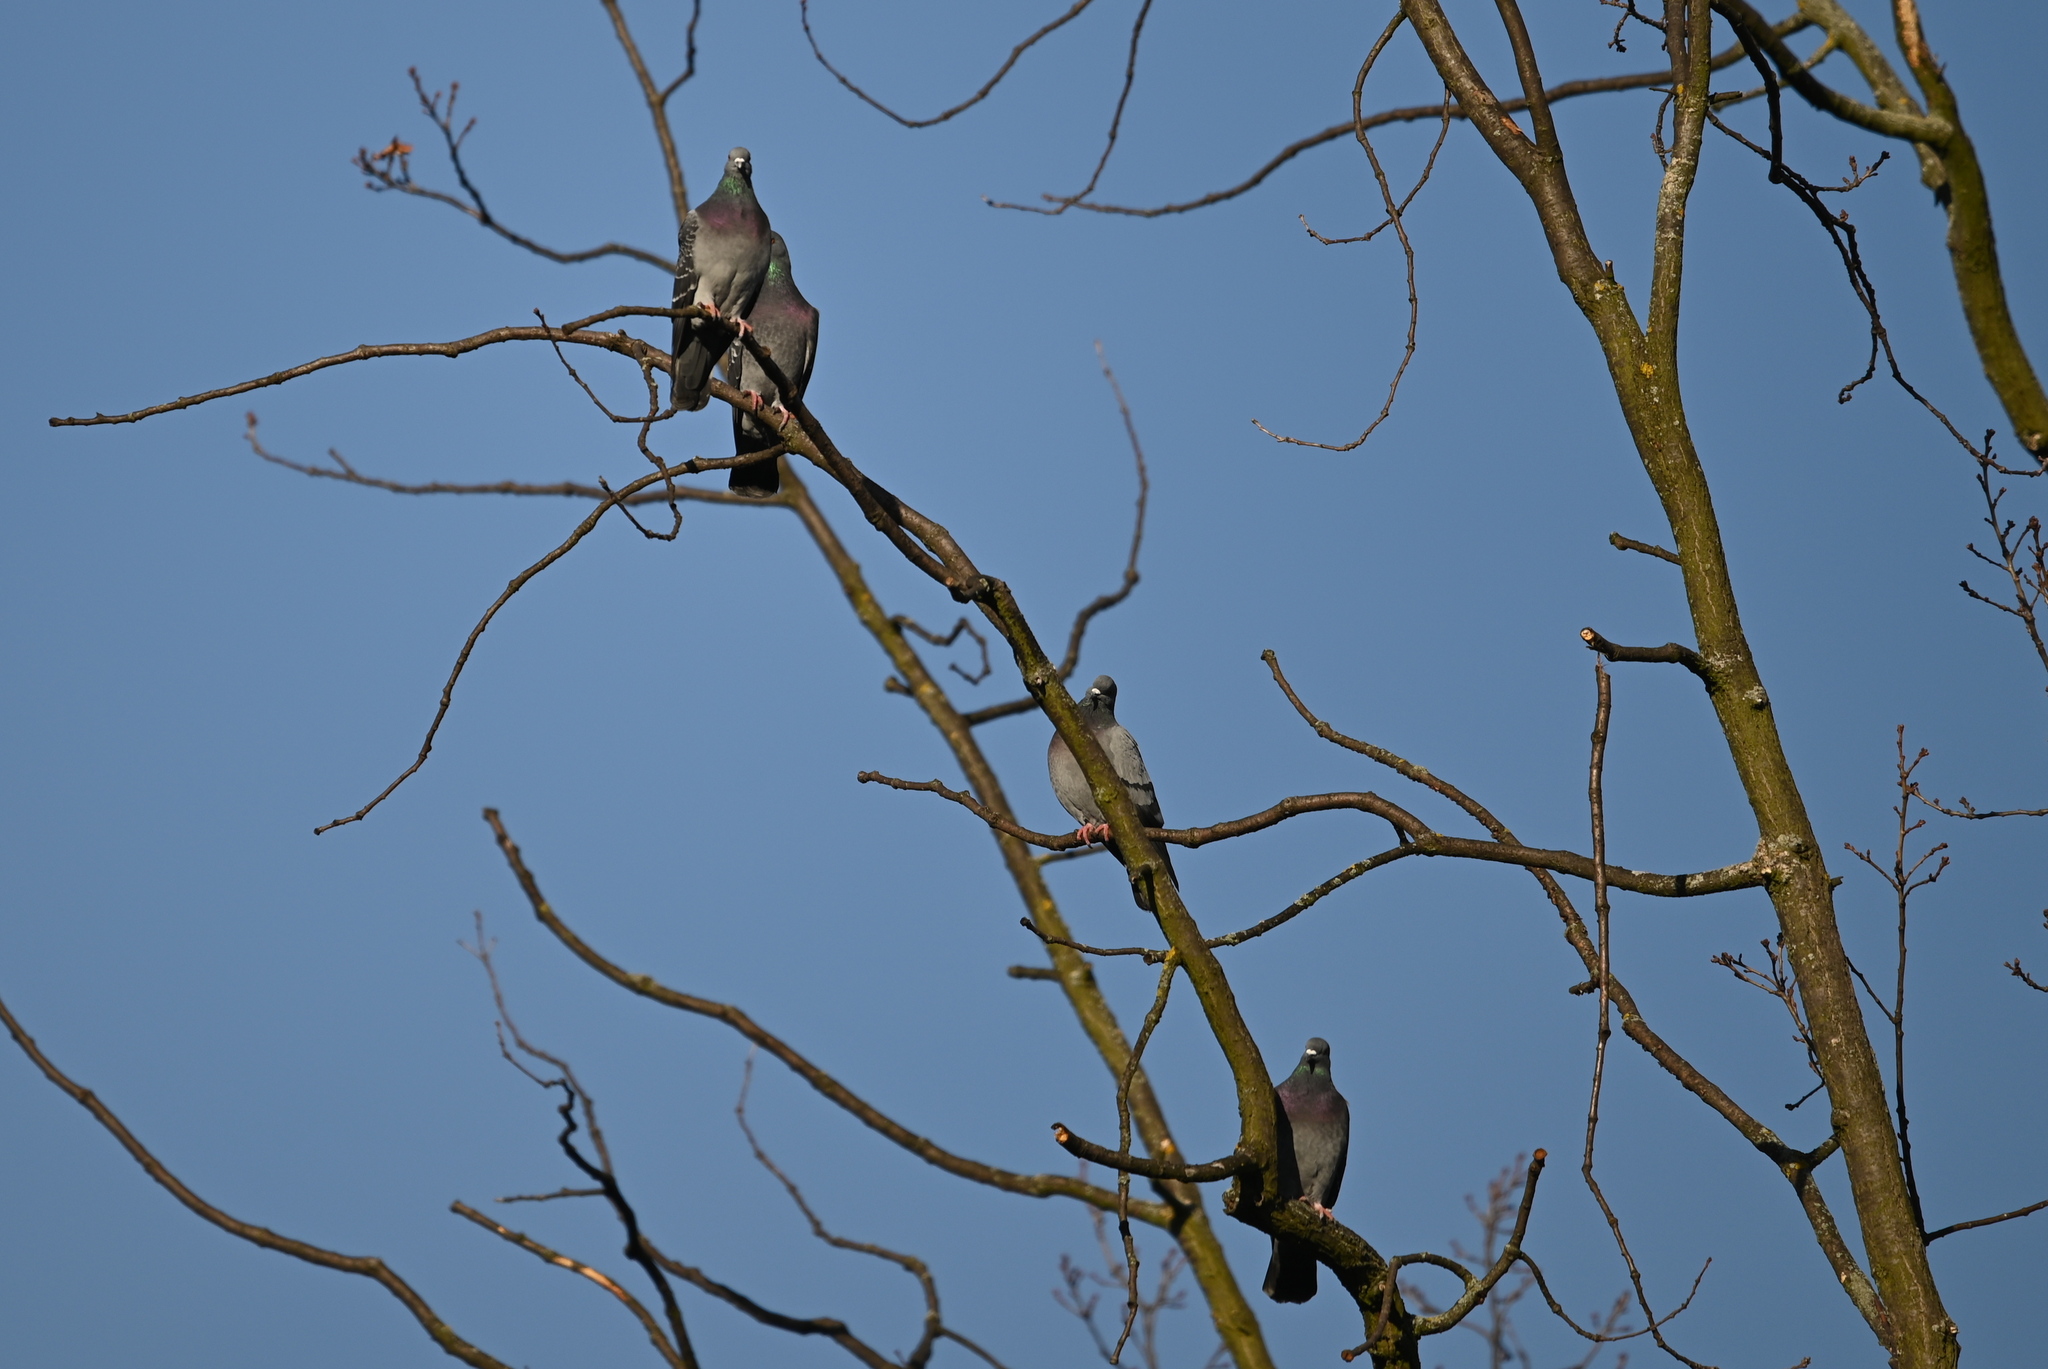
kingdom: Animalia
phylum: Chordata
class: Aves
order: Columbiformes
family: Columbidae
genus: Columba
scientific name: Columba livia
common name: Rock pigeon
